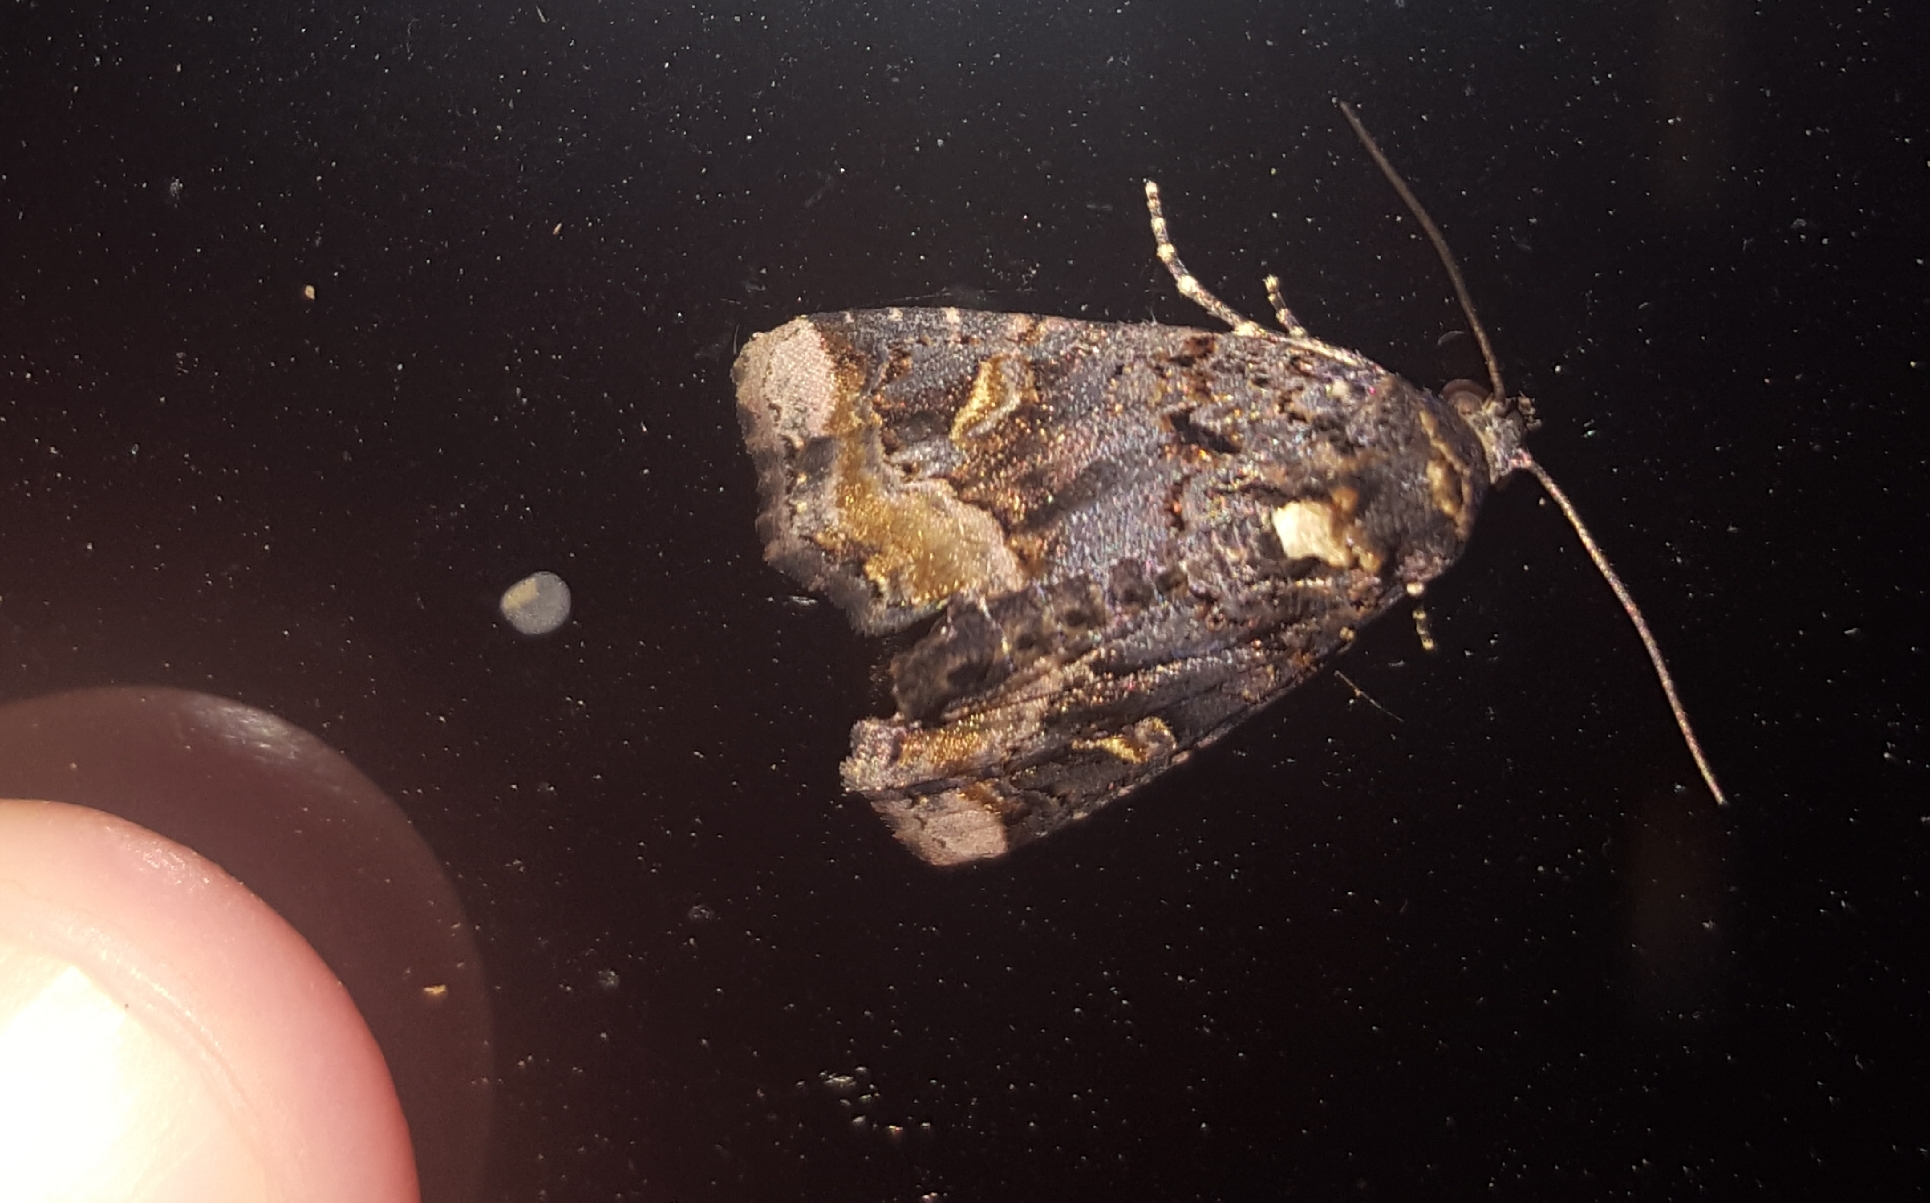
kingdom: Animalia
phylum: Arthropoda
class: Insecta
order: Lepidoptera
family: Noctuidae
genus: Homophoberia
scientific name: Homophoberia apicosa
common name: Black wedge-spot
